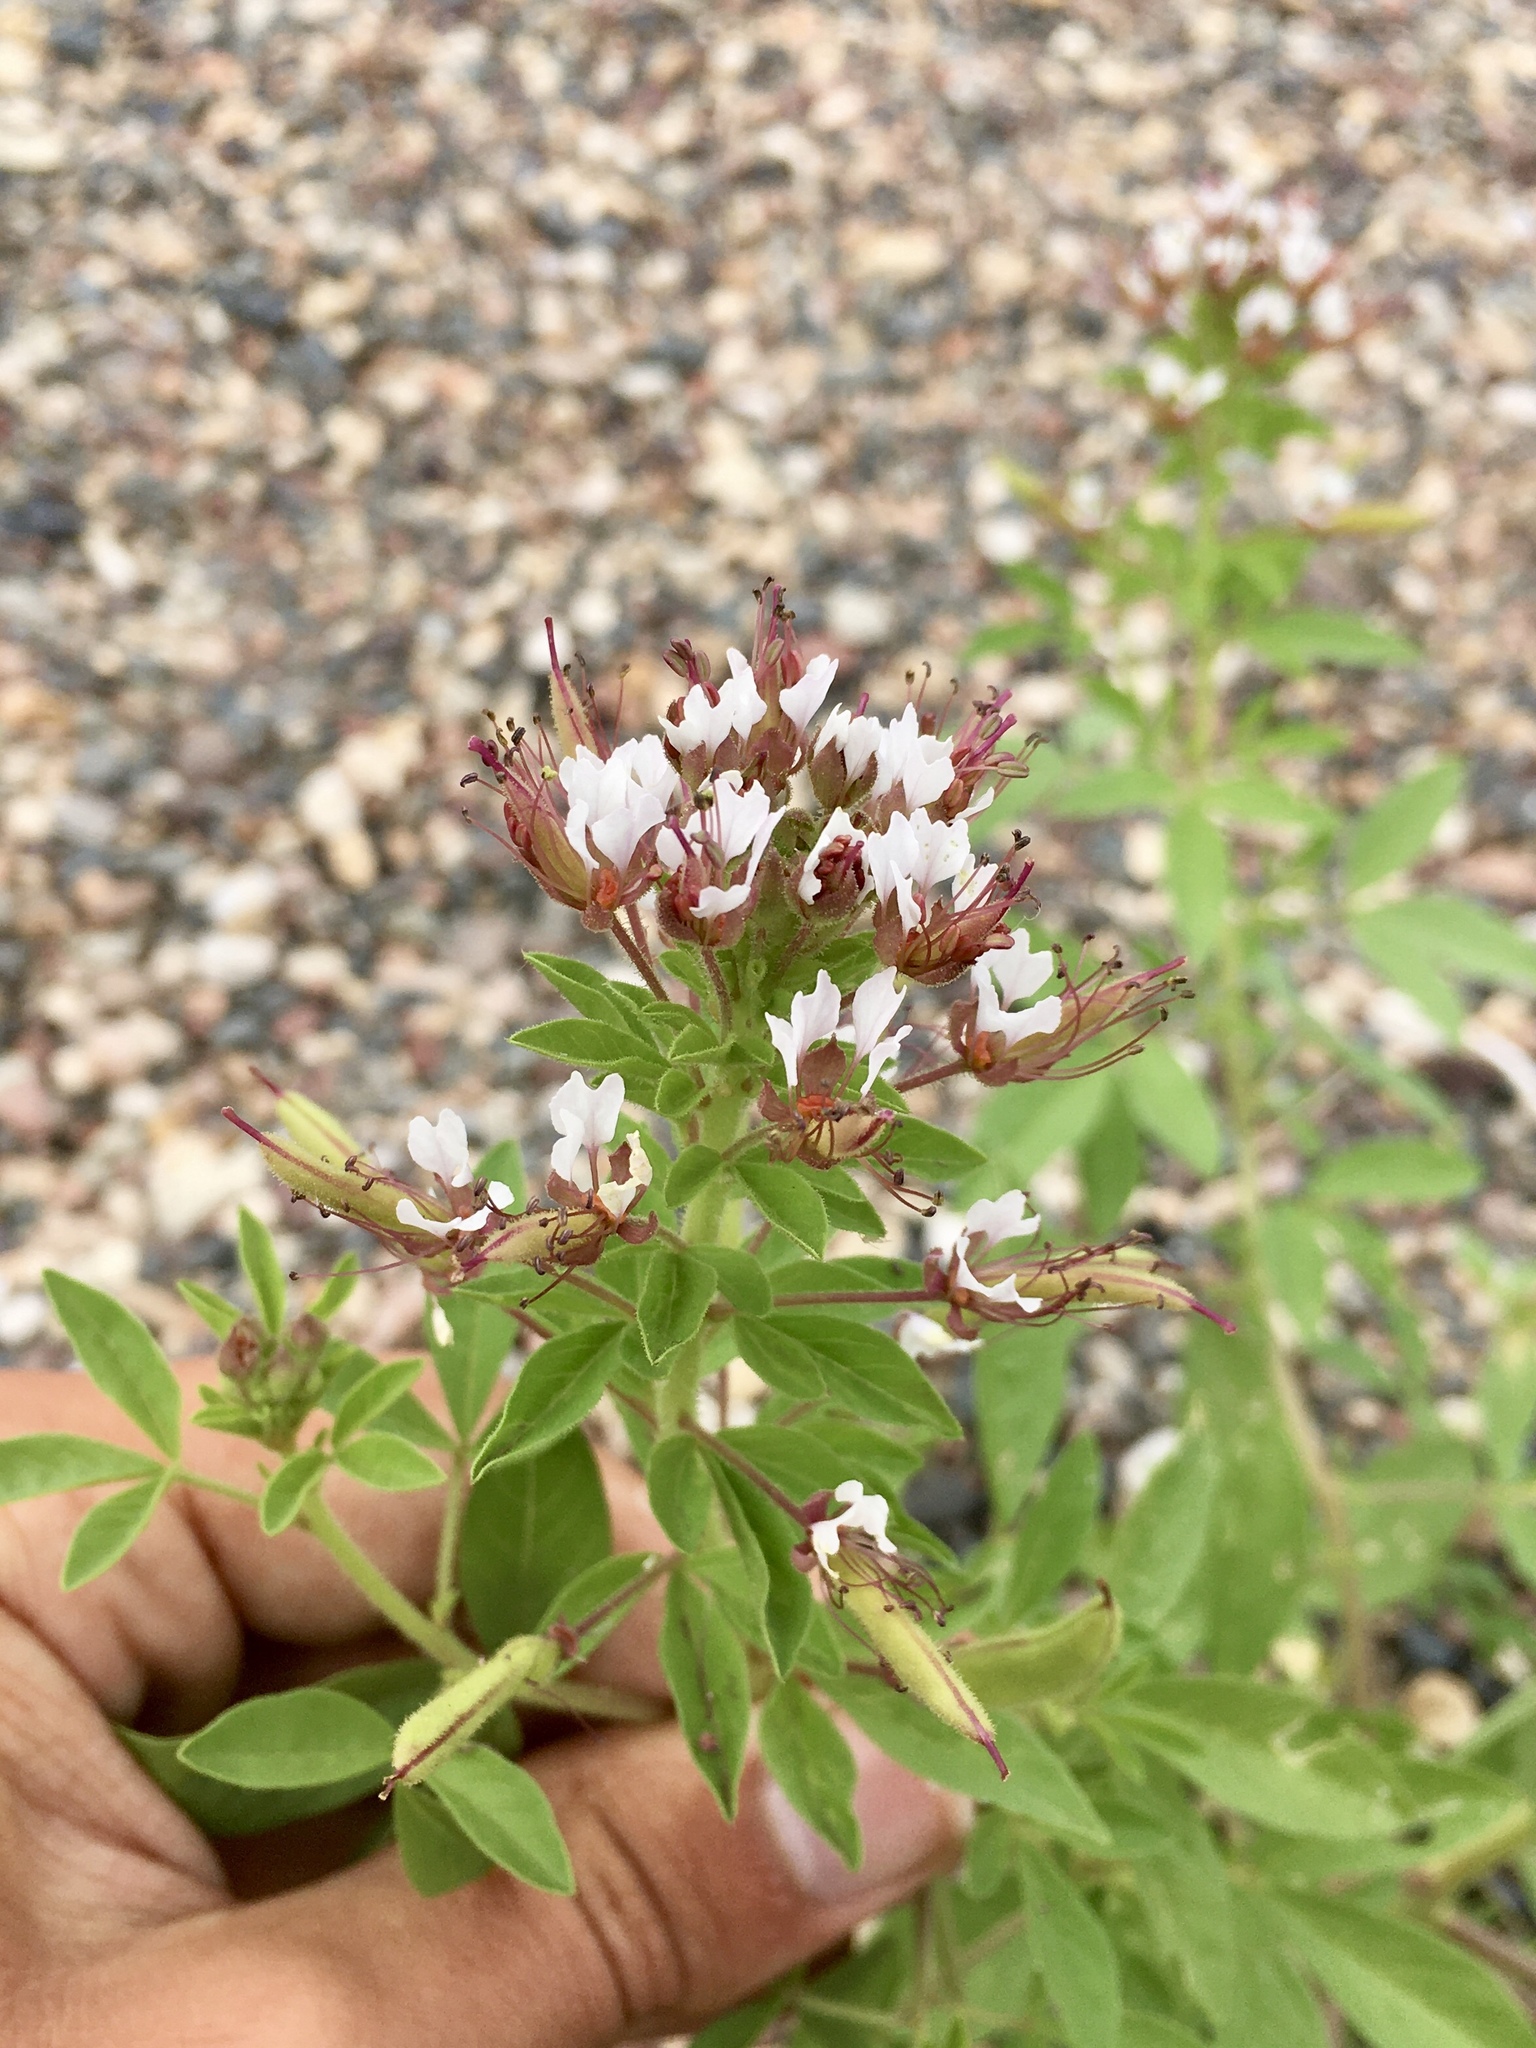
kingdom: Plantae
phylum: Tracheophyta
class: Magnoliopsida
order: Brassicales
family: Cleomaceae
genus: Polanisia
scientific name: Polanisia dodecandra
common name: Clammyweed
